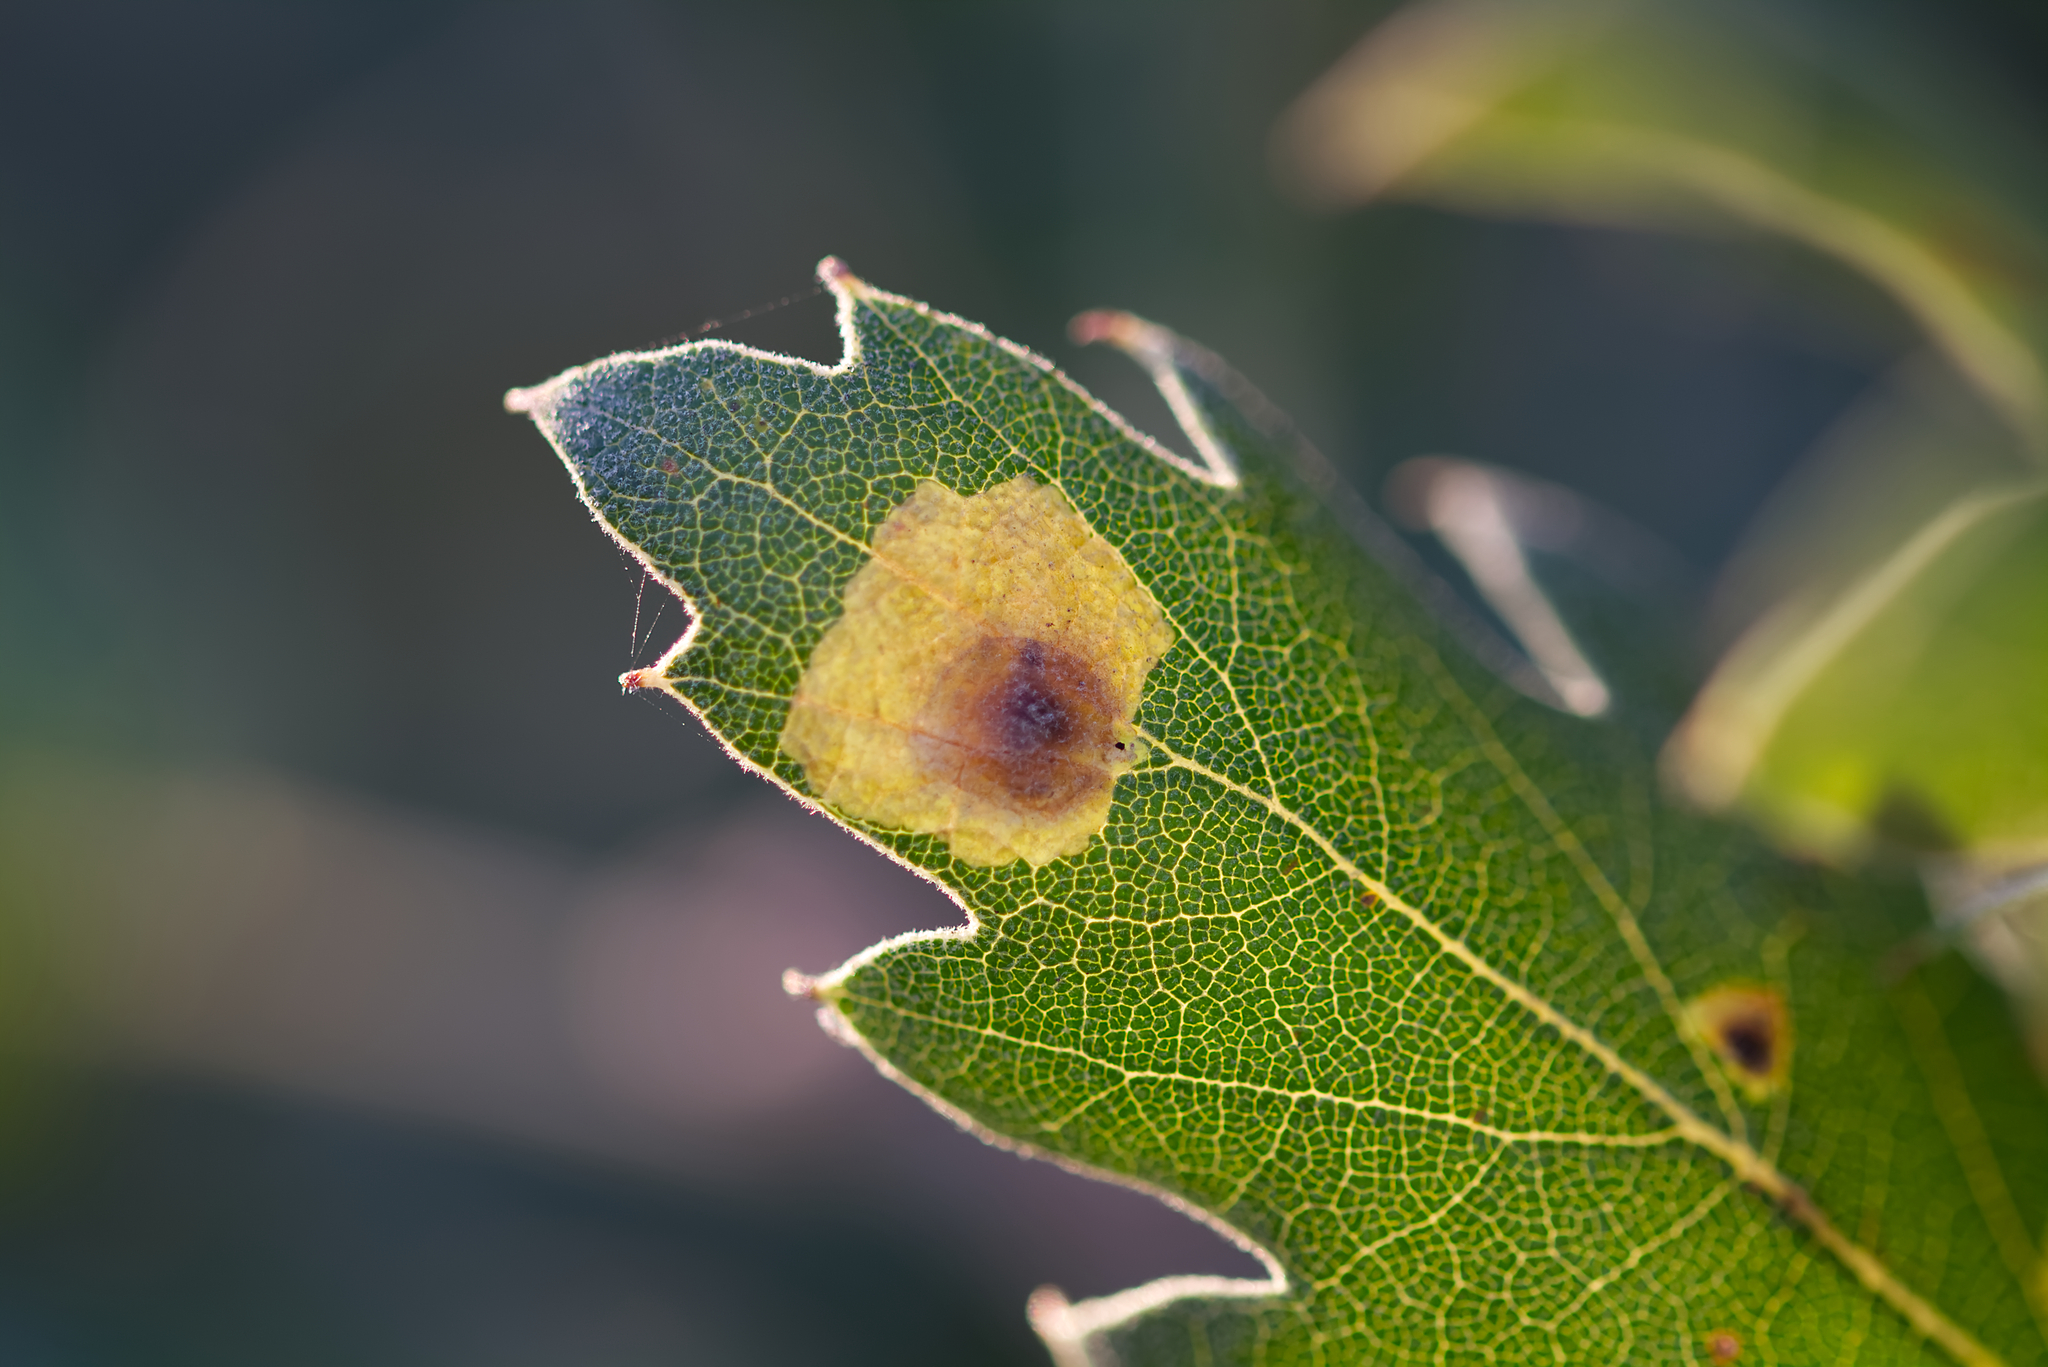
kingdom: Animalia
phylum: Arthropoda
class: Insecta
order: Lepidoptera
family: Tischeriidae
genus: Tischeria
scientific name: Tischeria
